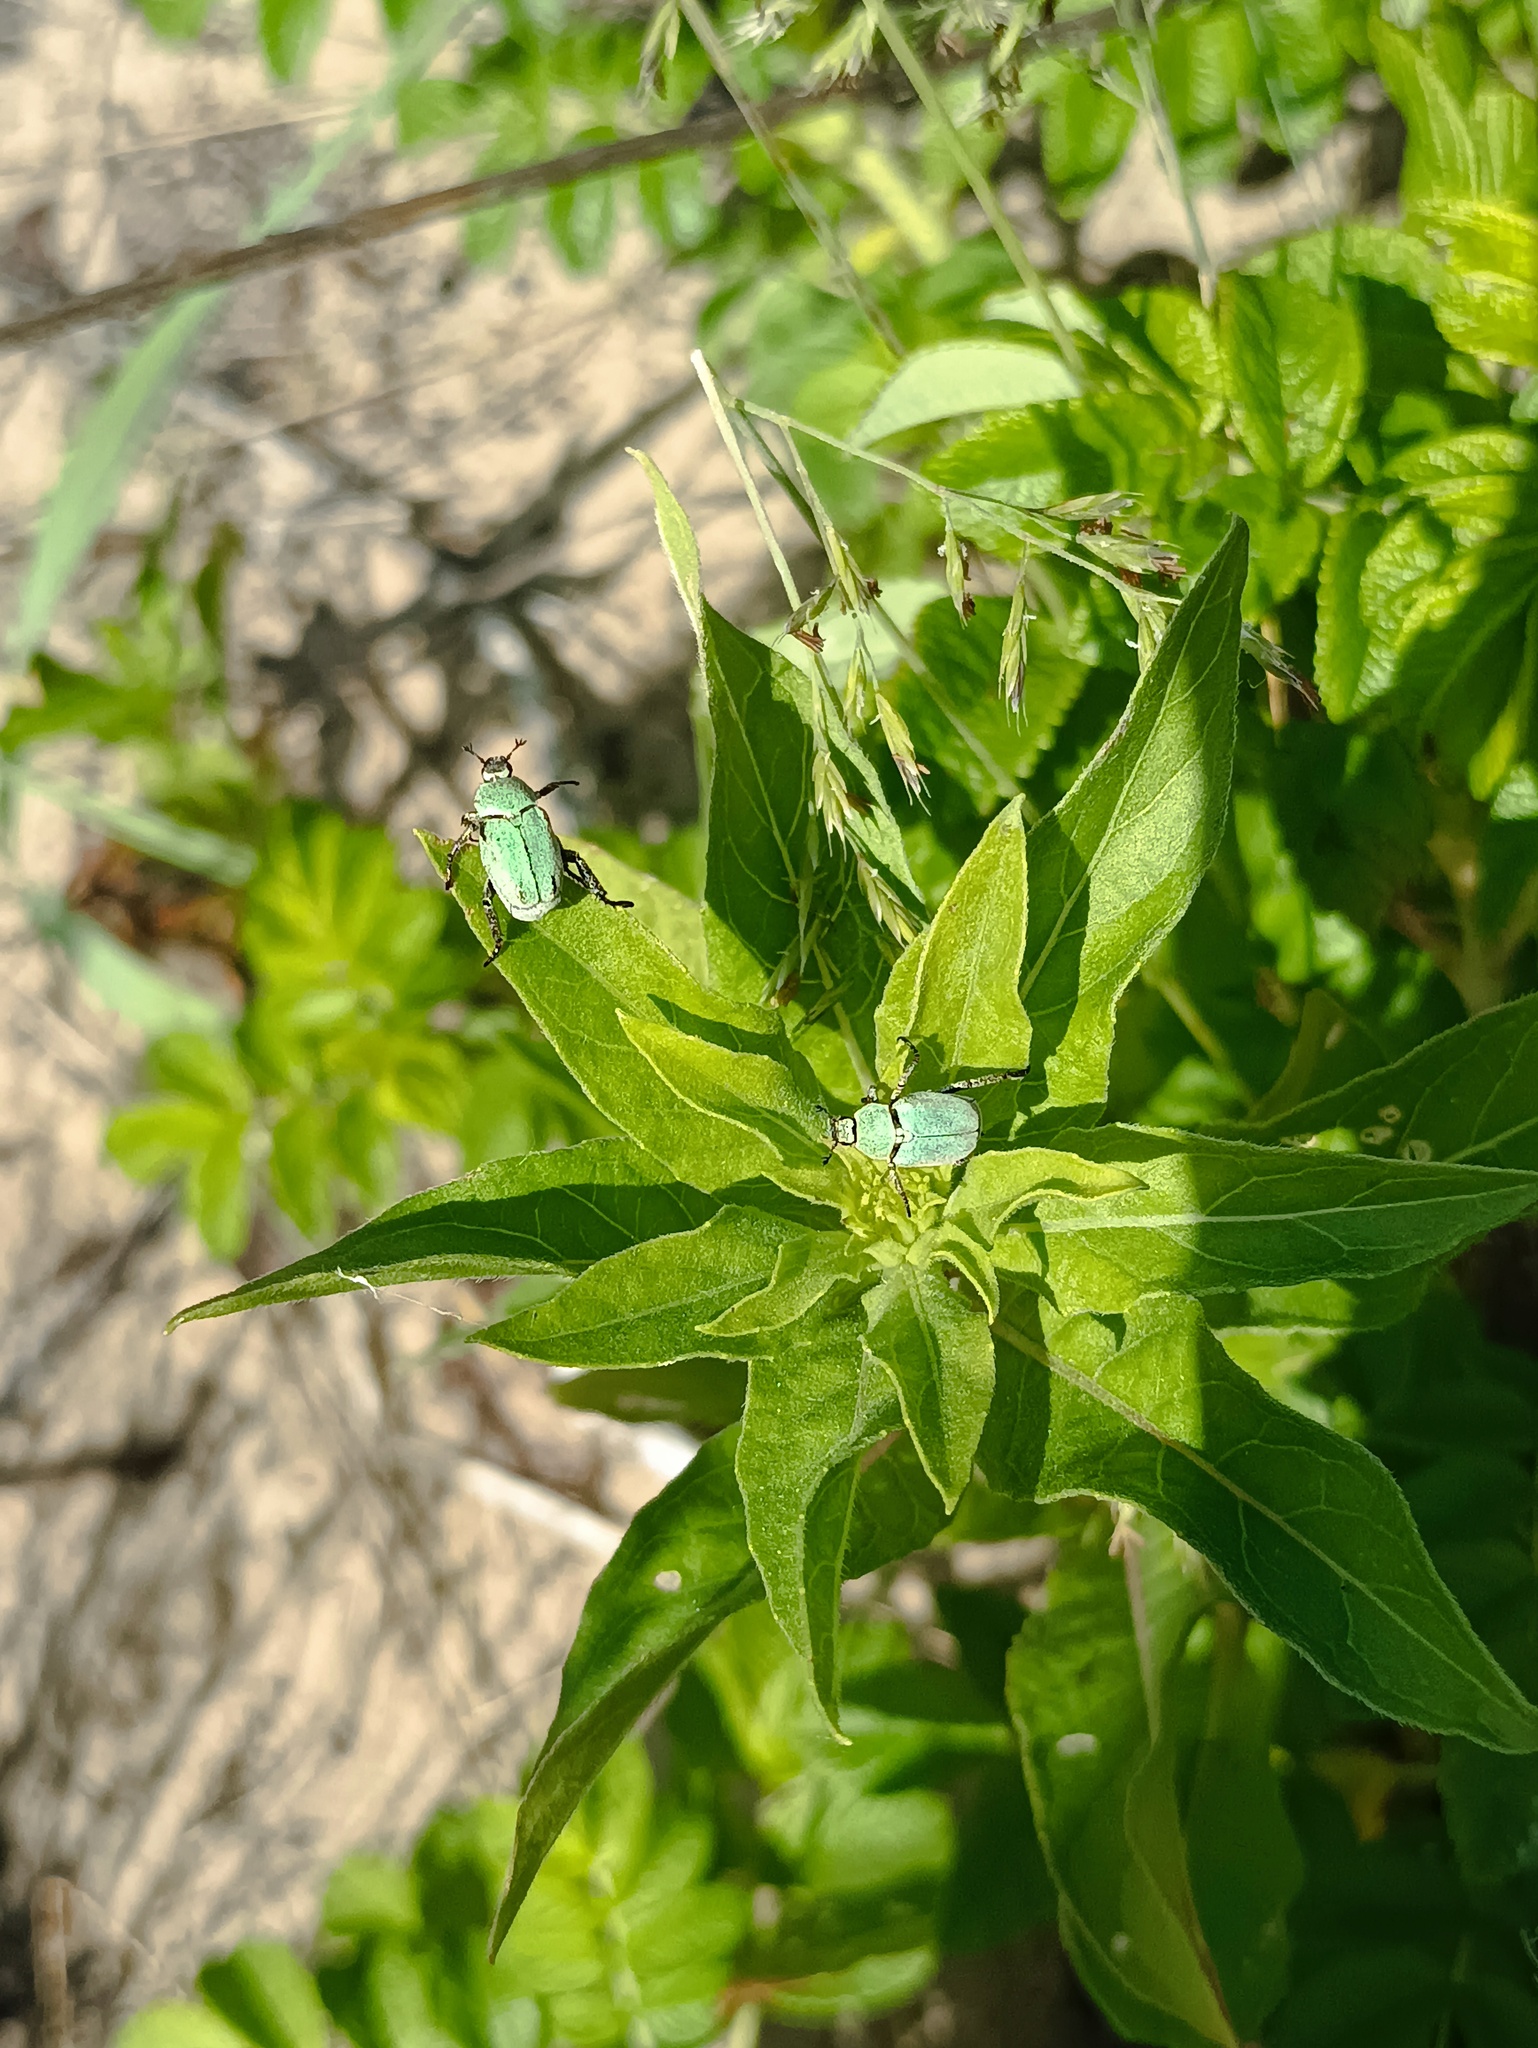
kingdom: Animalia
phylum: Arthropoda
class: Insecta
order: Coleoptera
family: Scarabaeidae
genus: Hoplia
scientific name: Hoplia parvula
